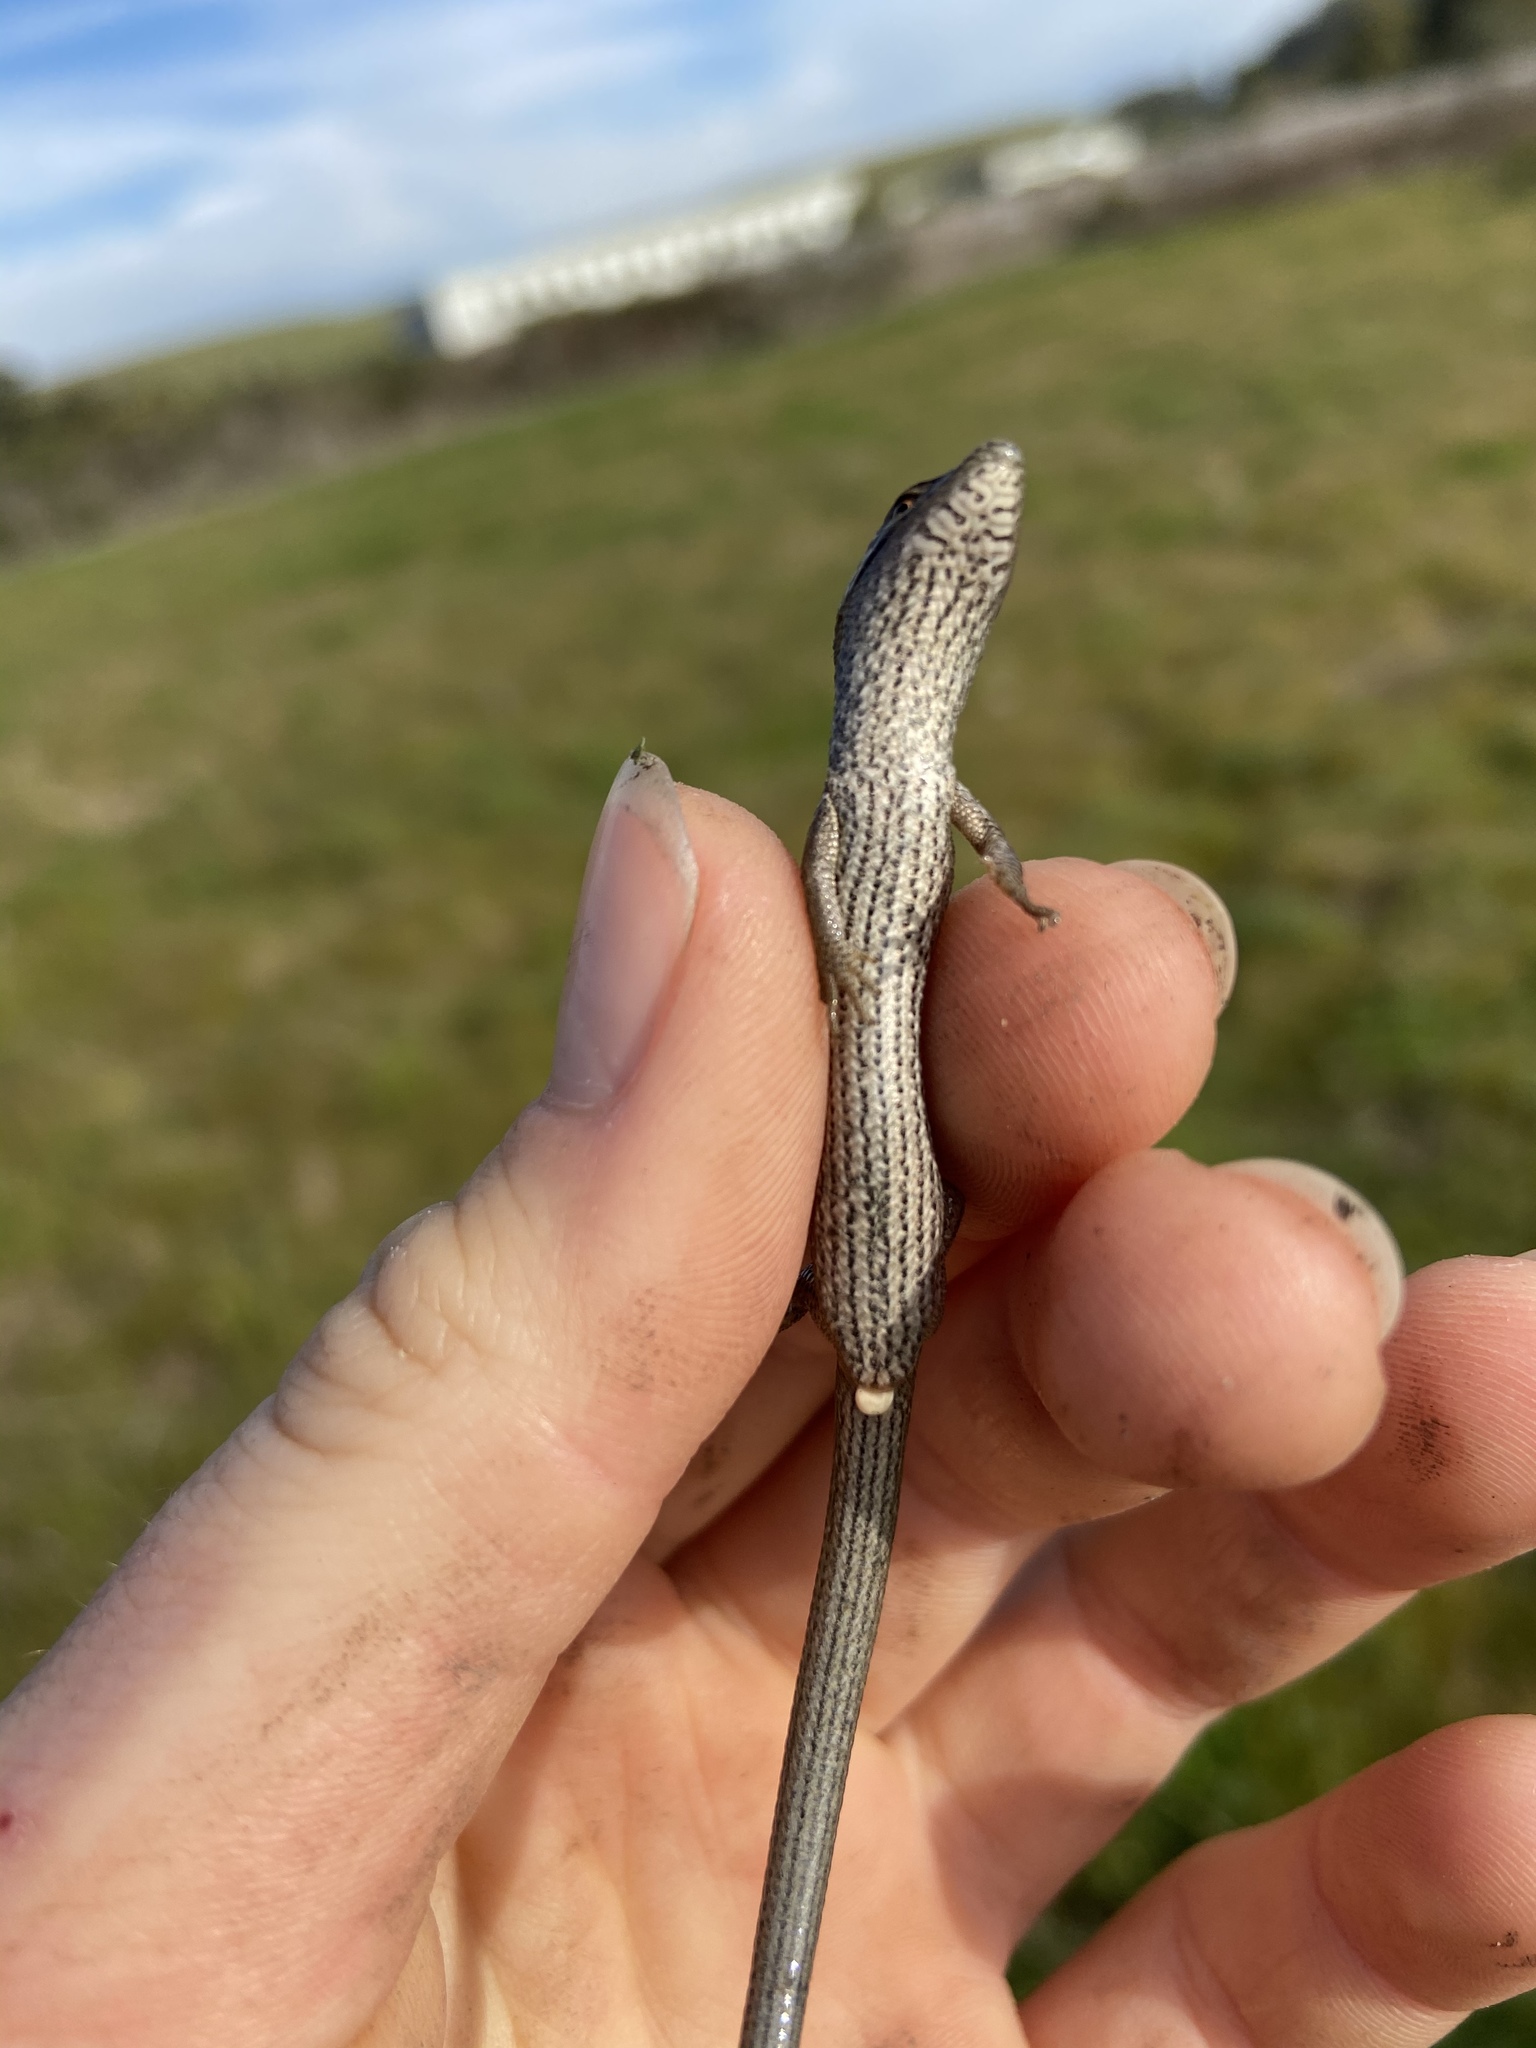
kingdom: Animalia
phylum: Chordata
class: Squamata
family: Anguidae
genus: Elgaria
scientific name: Elgaria multicarinata
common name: Southern alligator lizard
